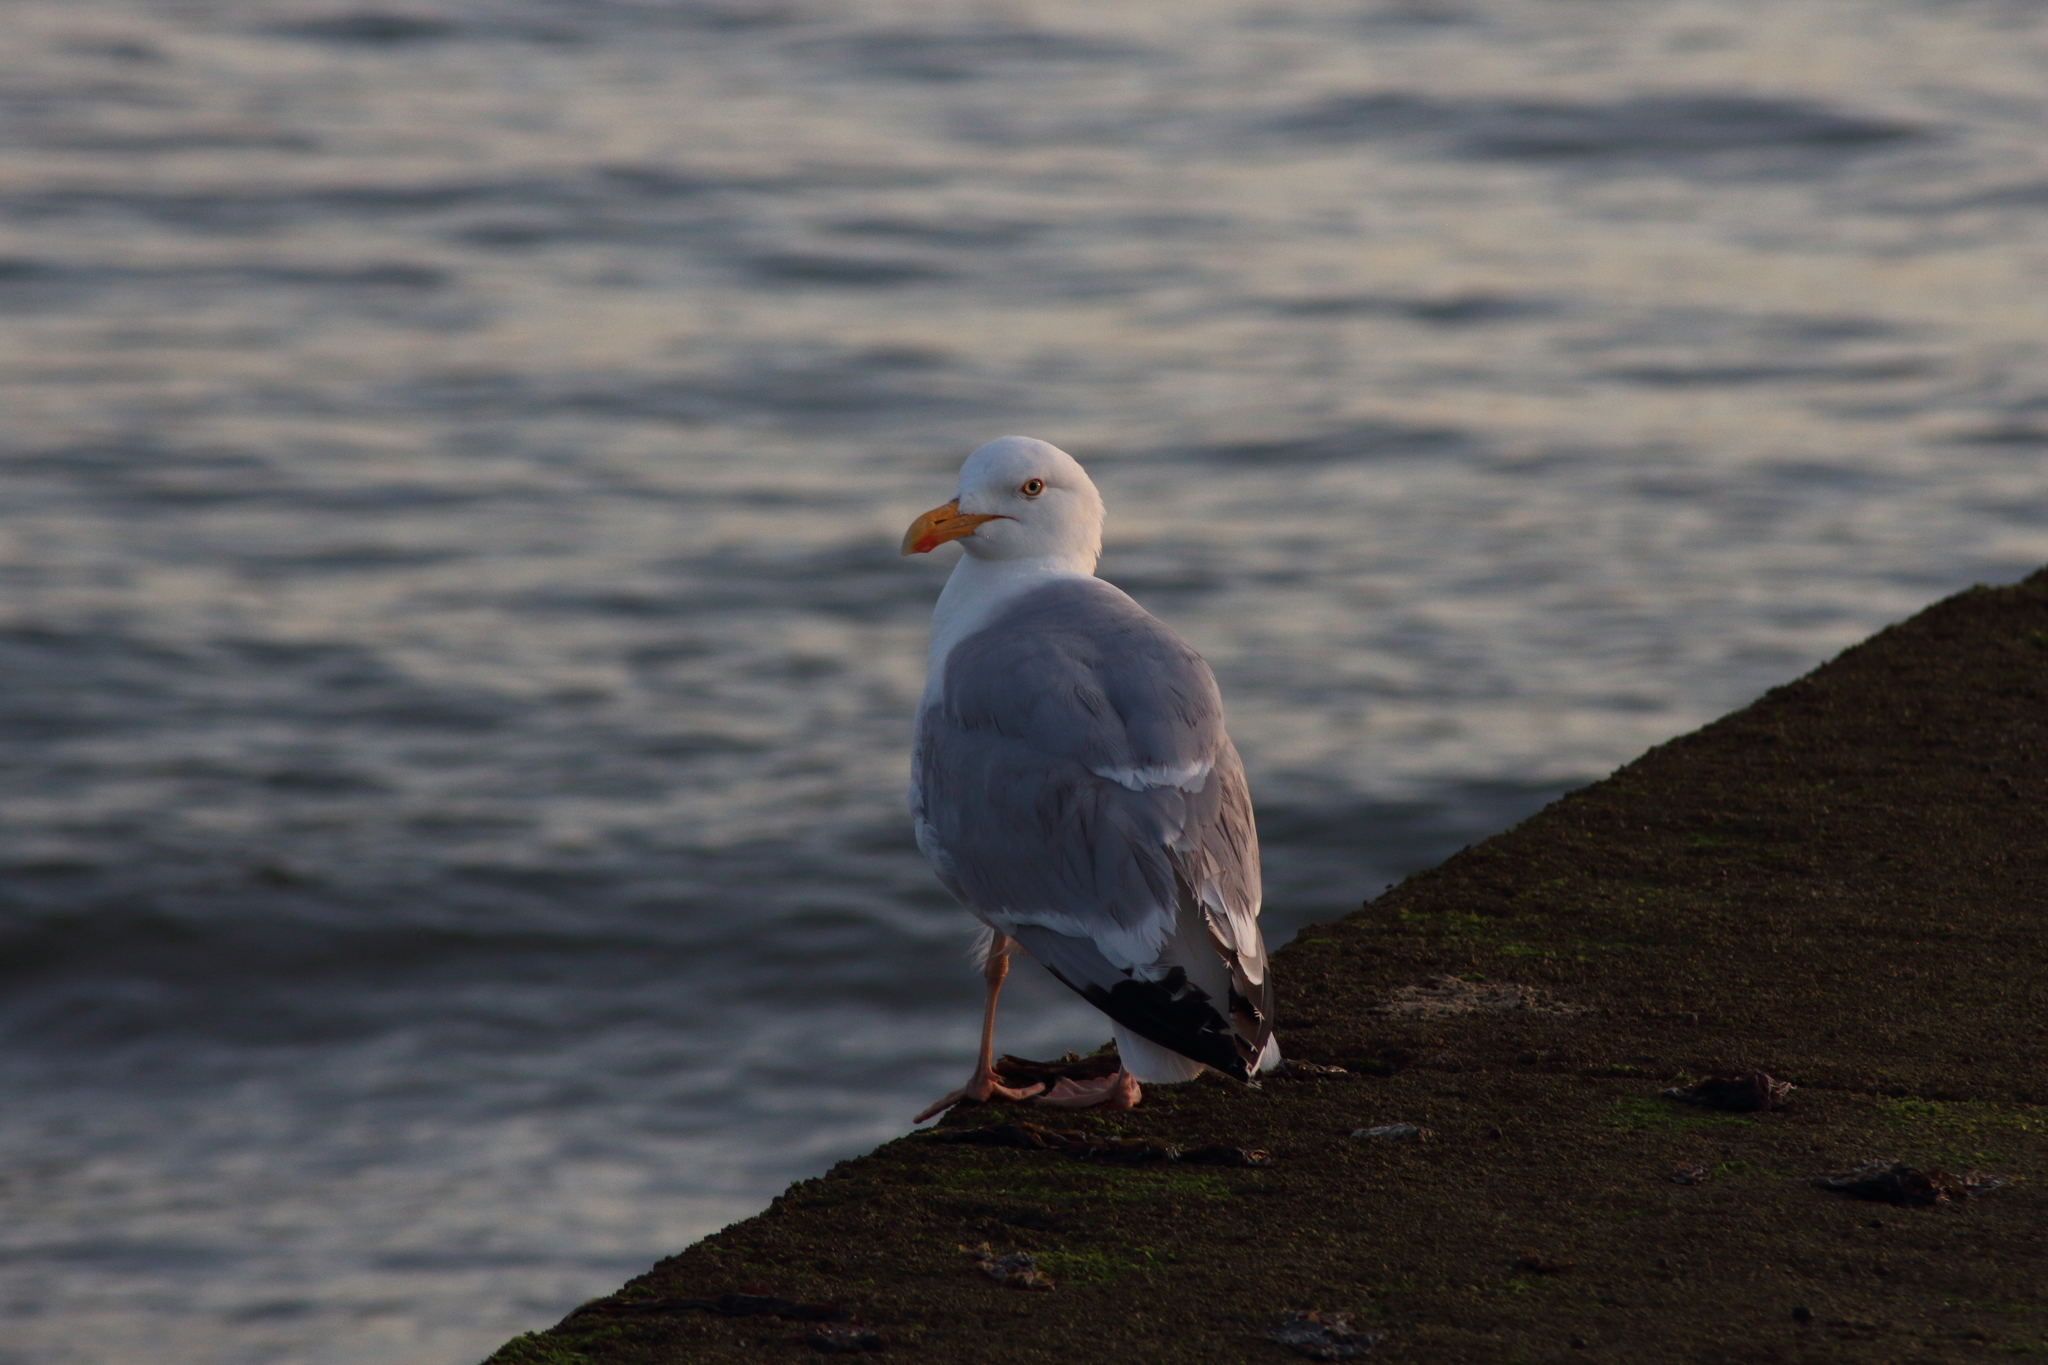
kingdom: Animalia
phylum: Chordata
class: Aves
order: Charadriiformes
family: Laridae
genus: Larus
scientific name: Larus argentatus
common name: Herring gull
